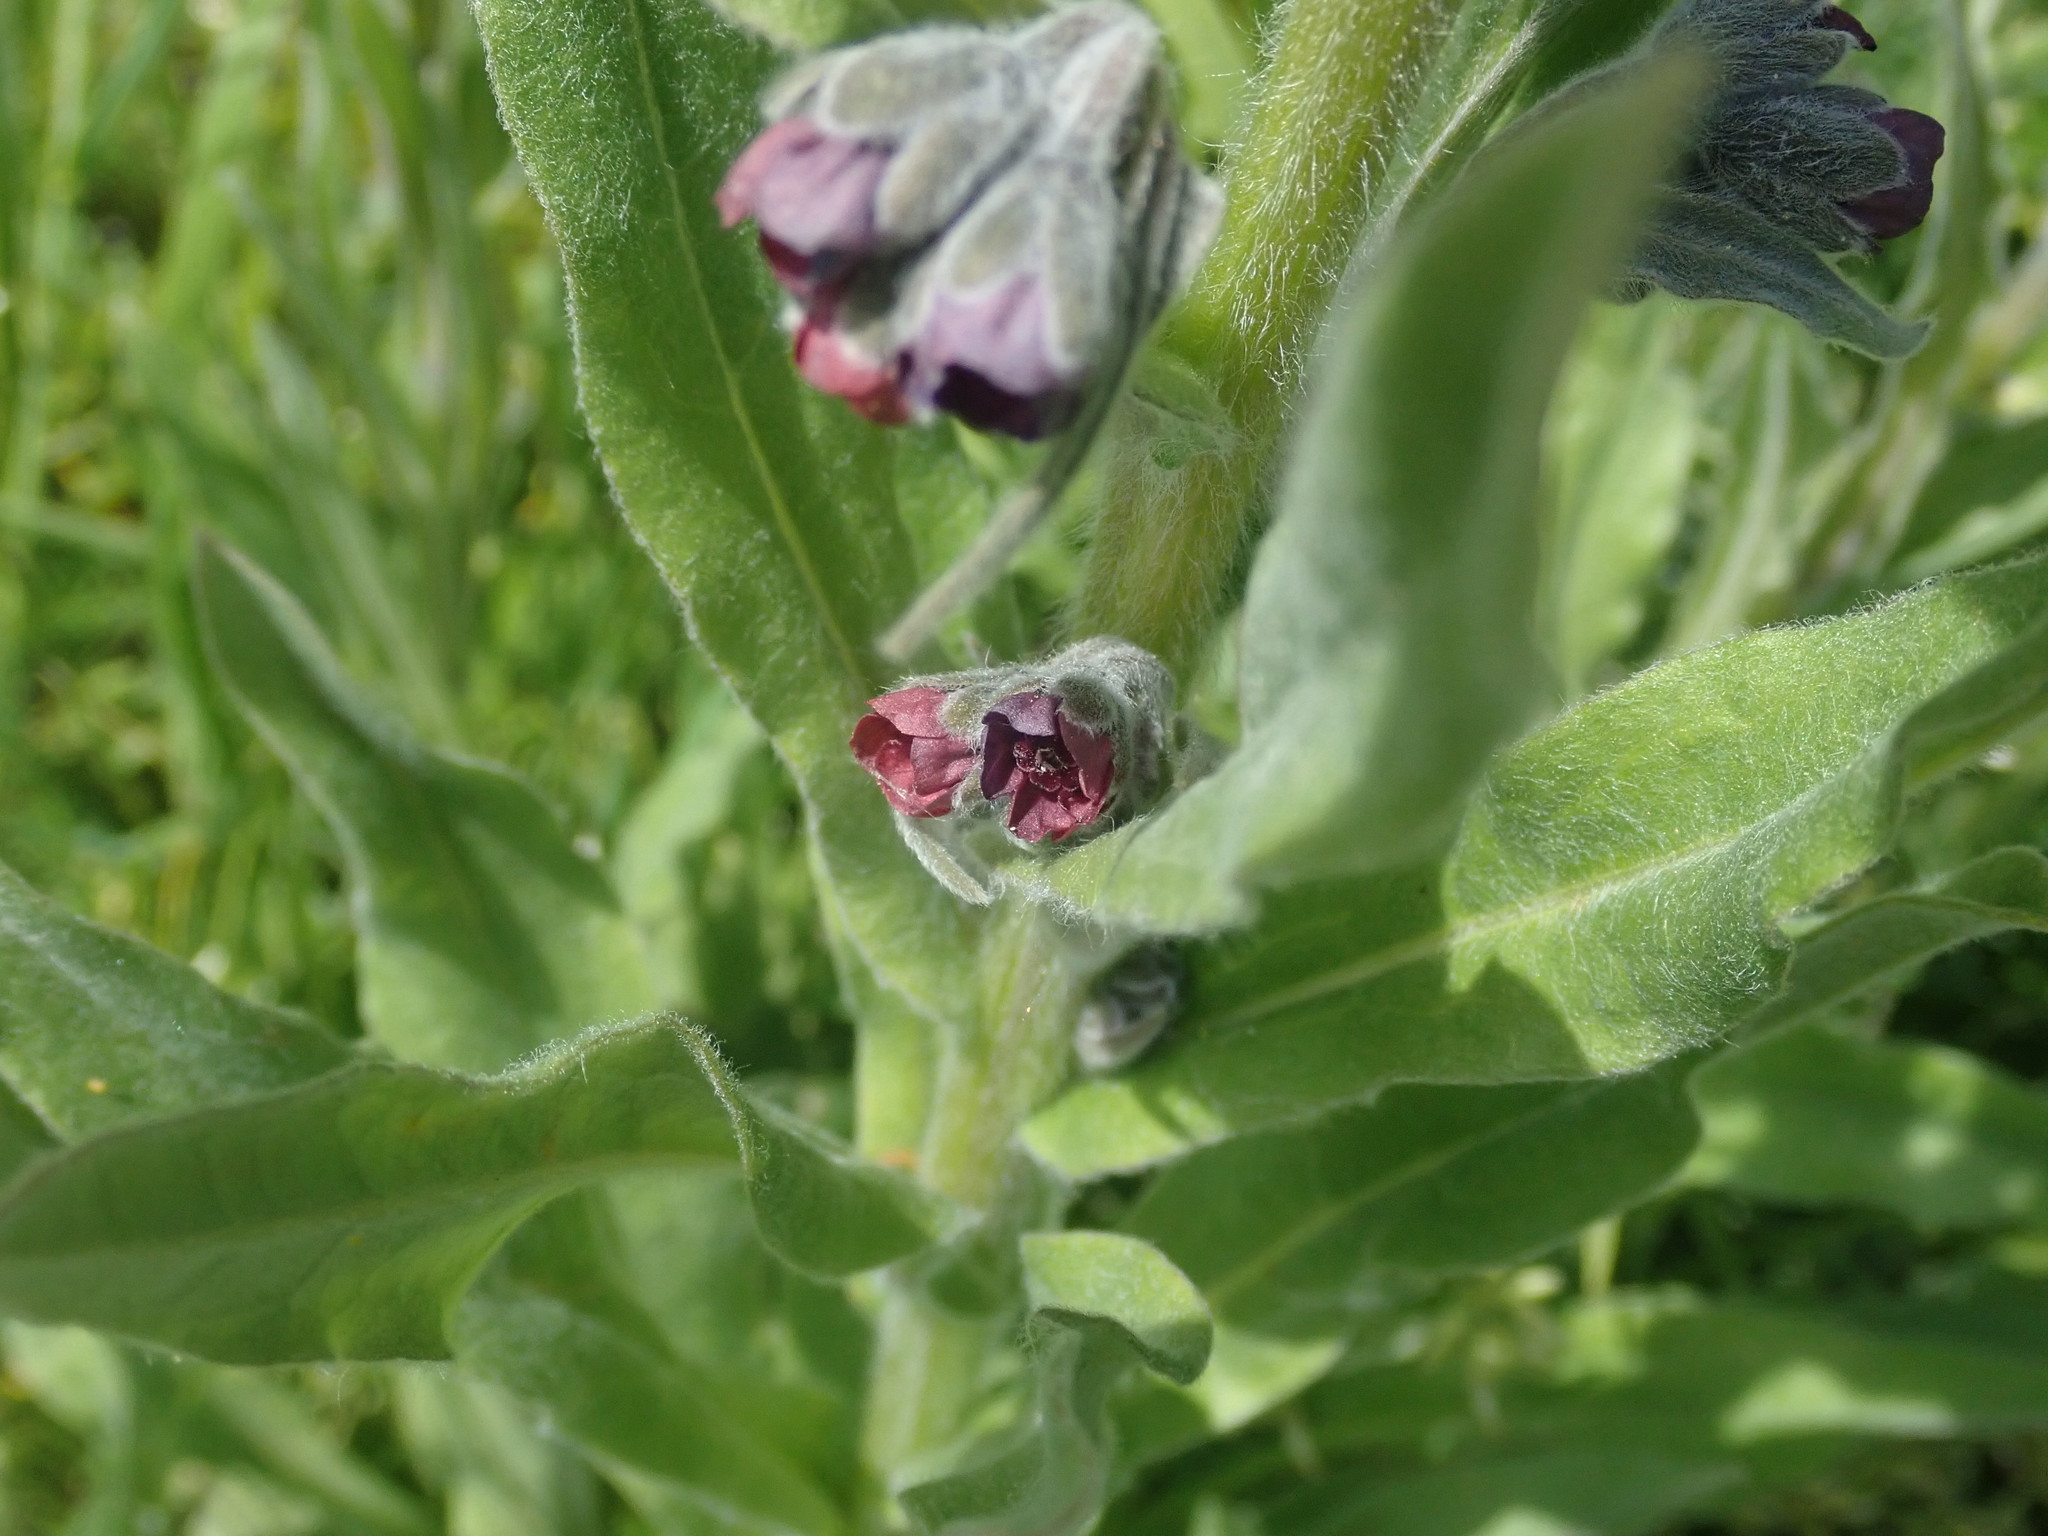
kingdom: Plantae
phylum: Tracheophyta
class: Magnoliopsida
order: Boraginales
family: Boraginaceae
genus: Cynoglossum
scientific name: Cynoglossum officinale
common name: Hound's-tongue
